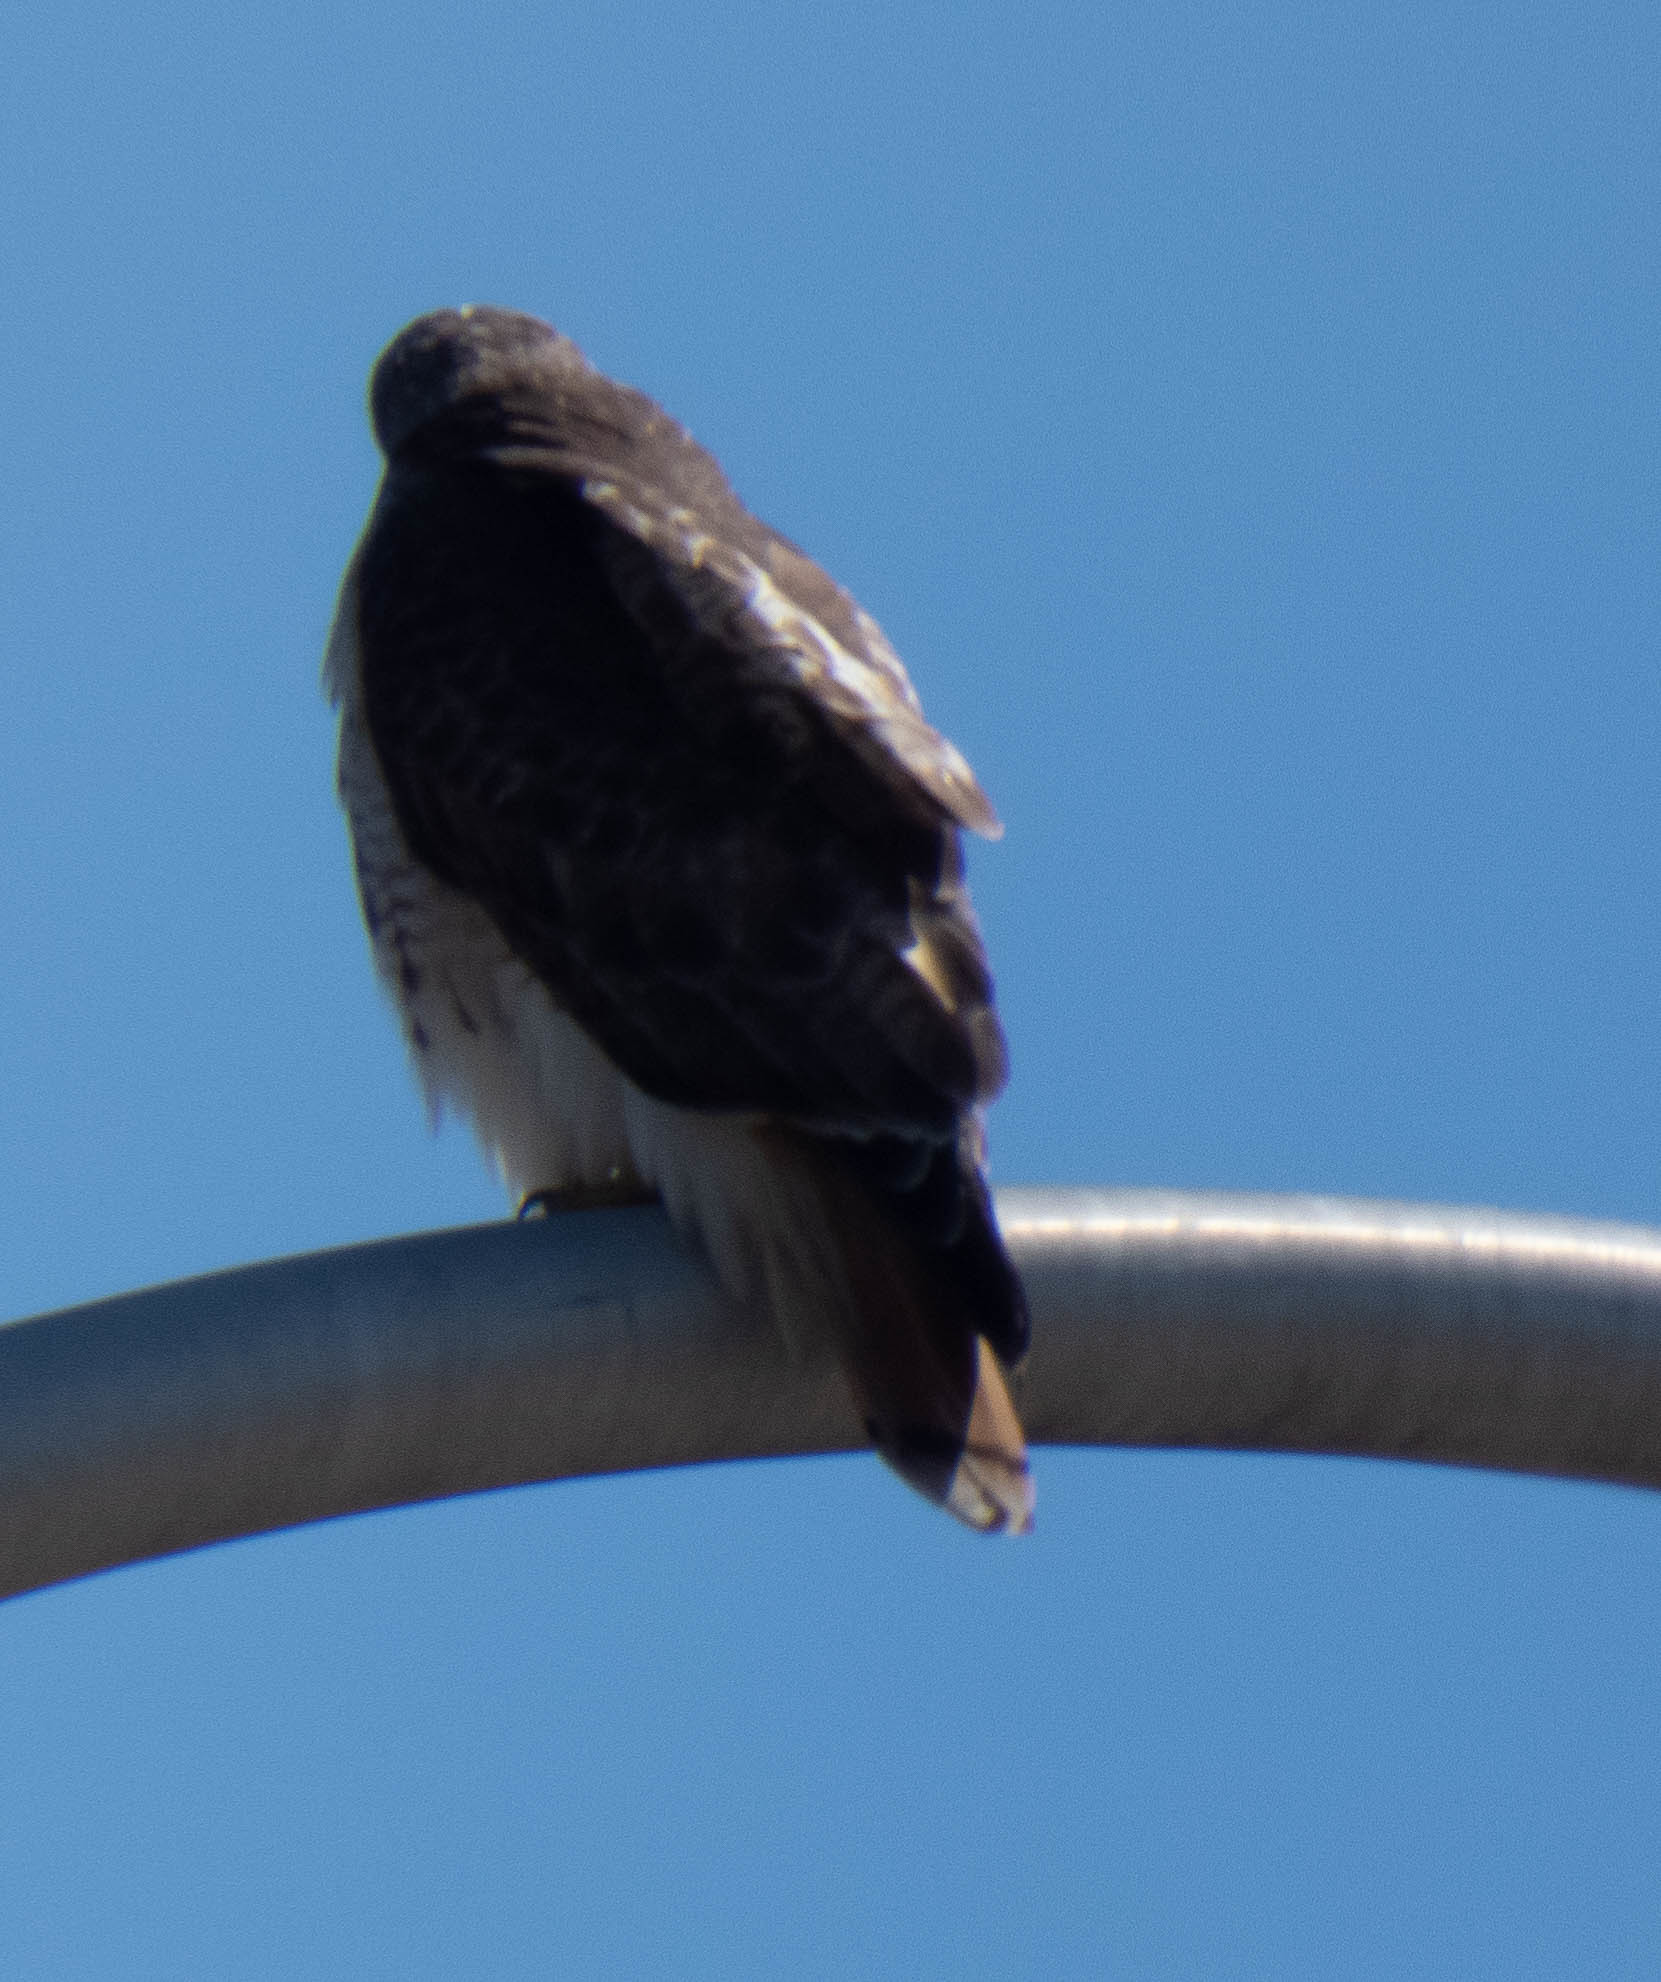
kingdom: Animalia
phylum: Chordata
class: Aves
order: Accipitriformes
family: Accipitridae
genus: Buteo
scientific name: Buteo jamaicensis
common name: Red-tailed hawk
